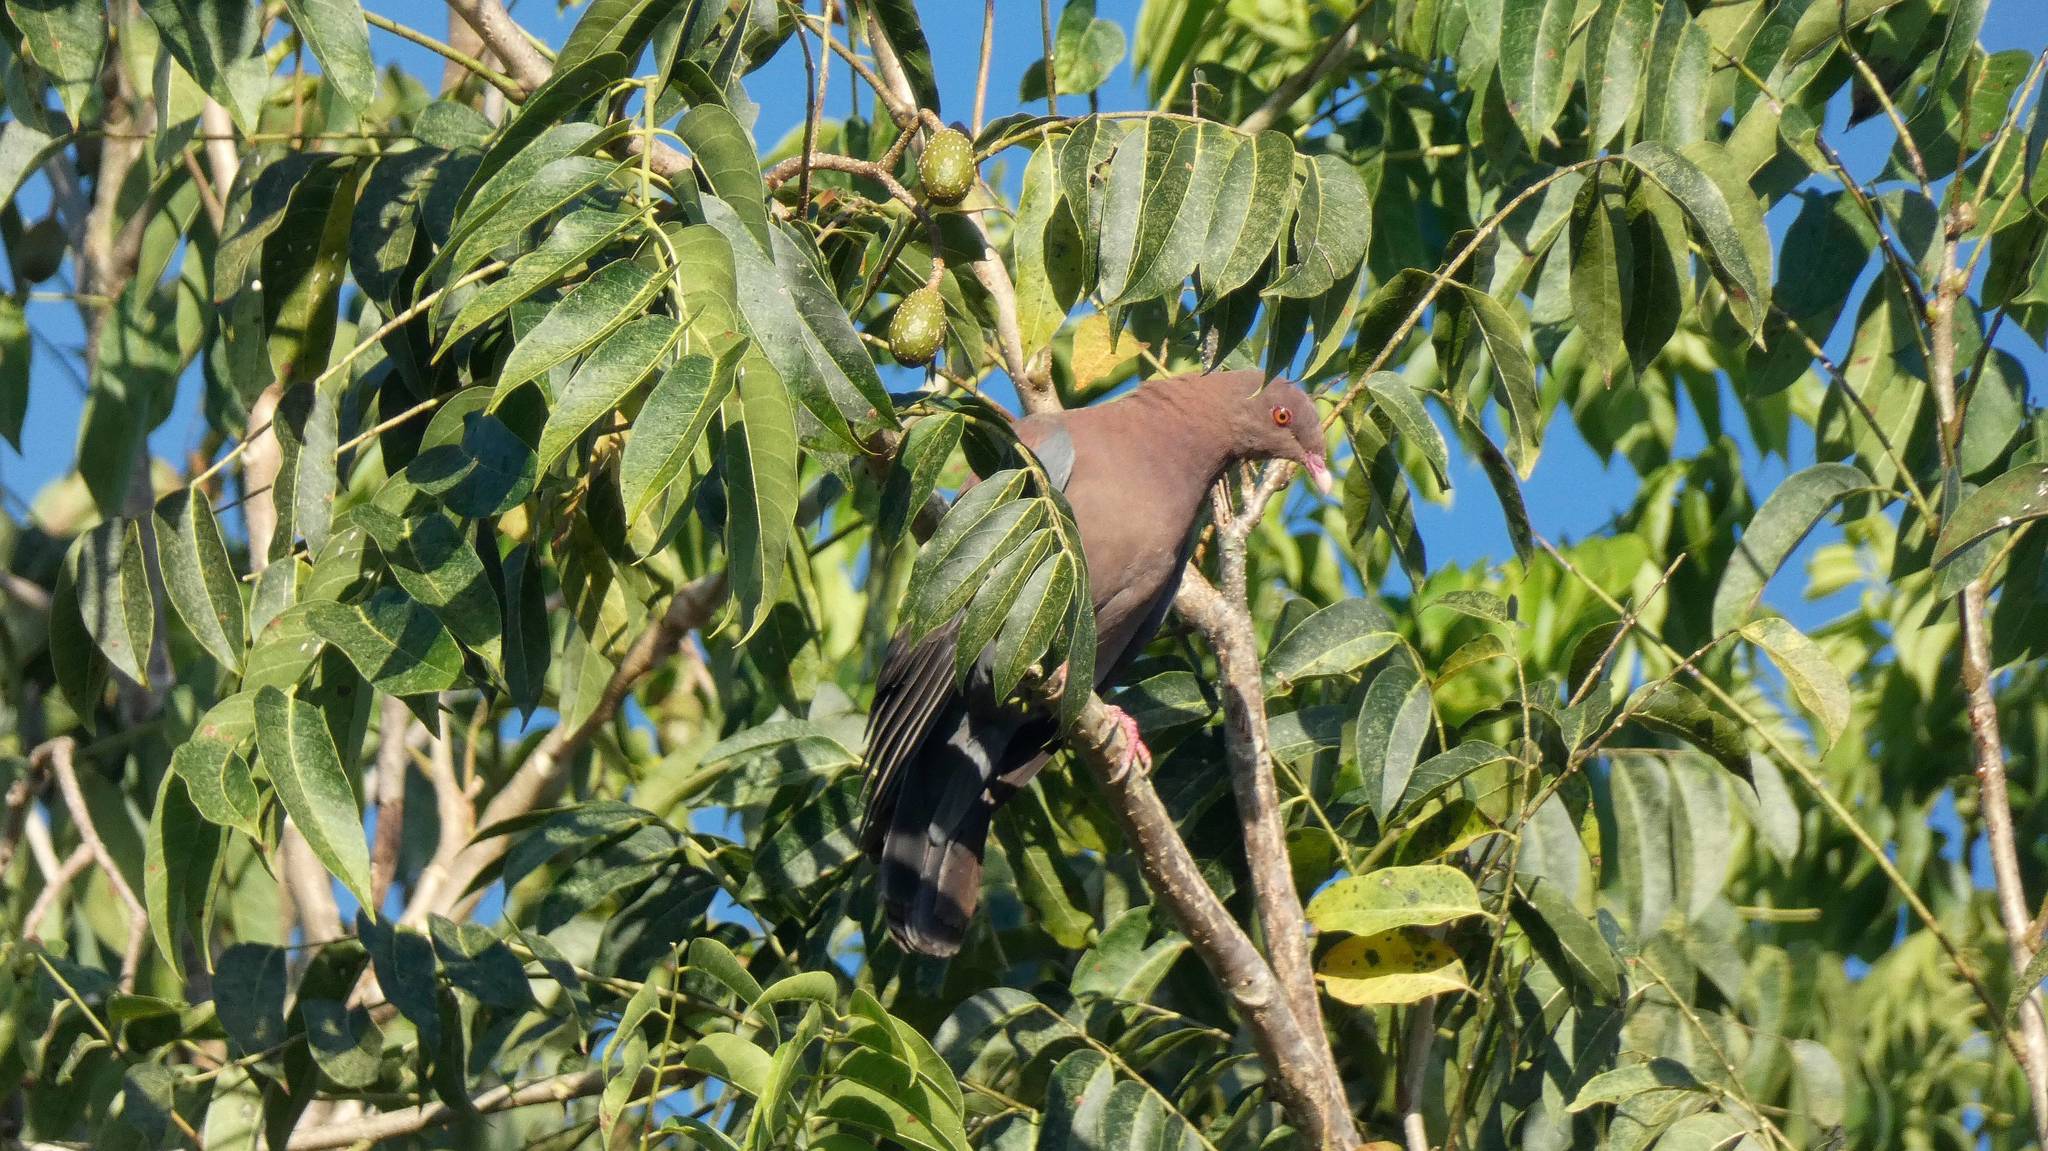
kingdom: Animalia
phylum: Chordata
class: Aves
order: Columbiformes
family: Columbidae
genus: Patagioenas
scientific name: Patagioenas flavirostris
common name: Red-billed pigeon
